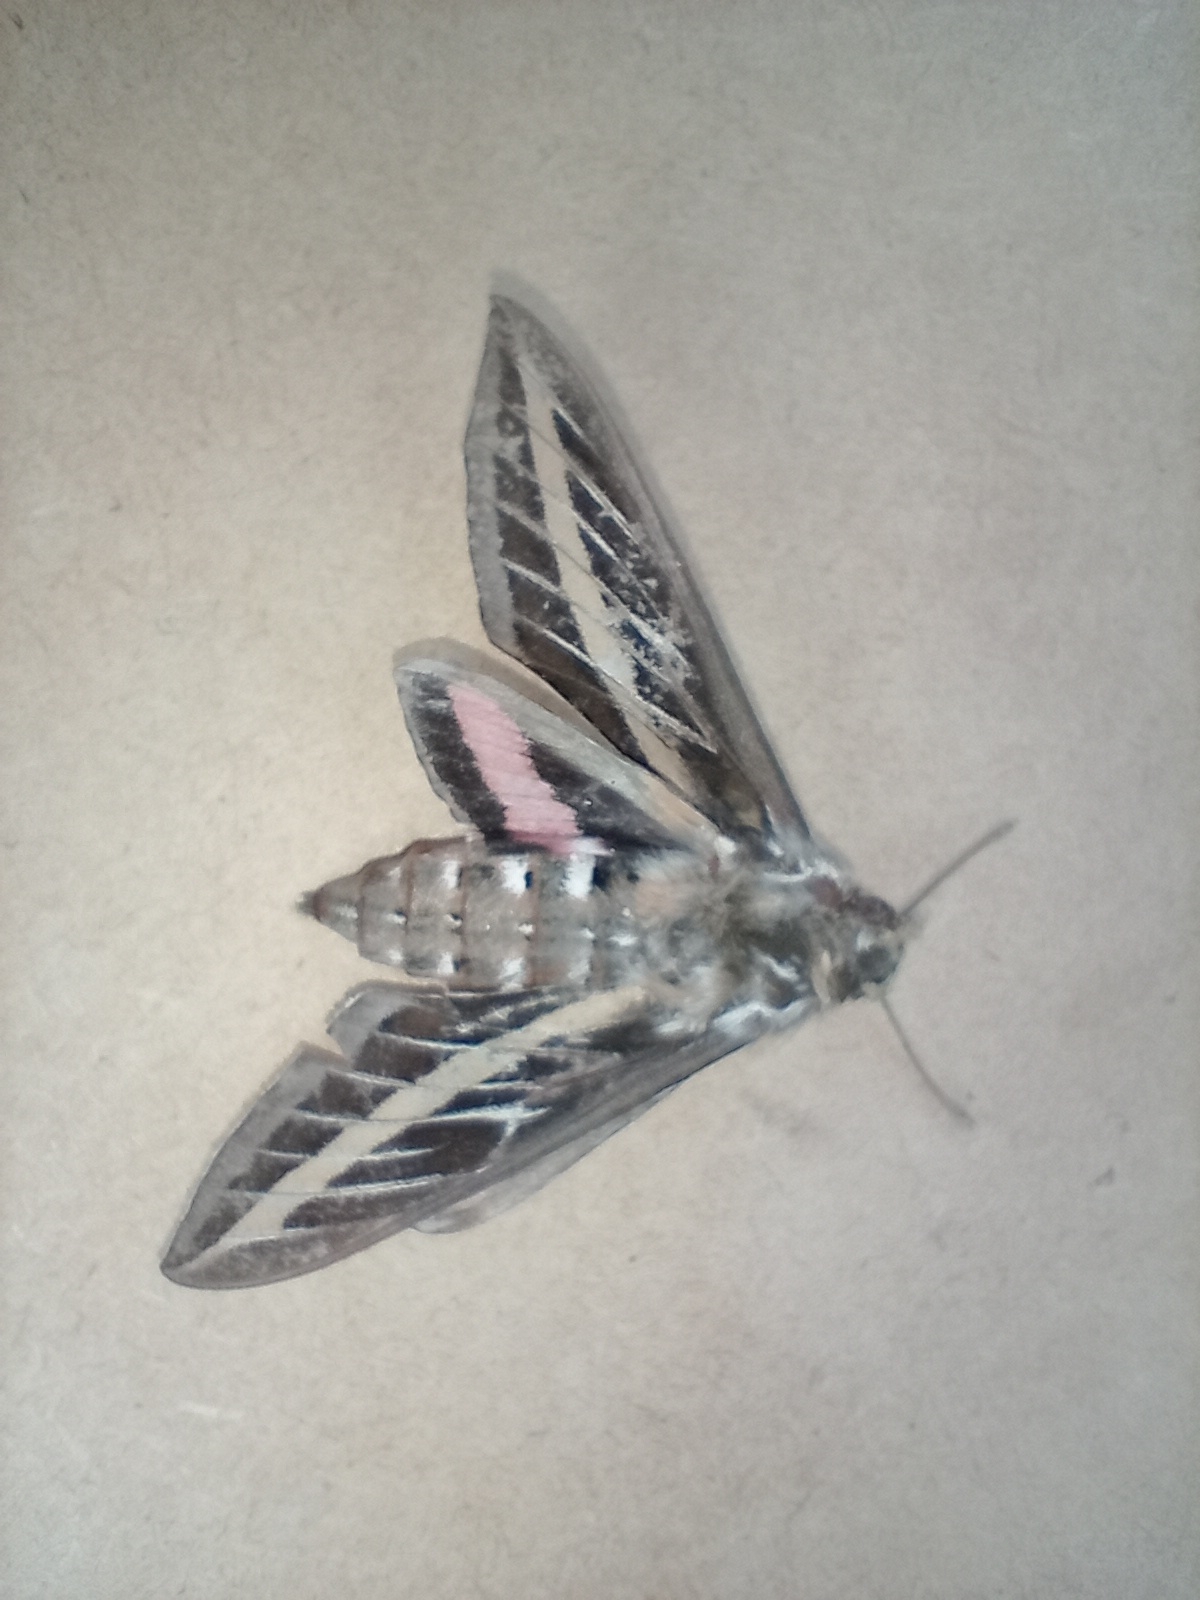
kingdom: Animalia
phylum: Arthropoda
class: Insecta
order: Lepidoptera
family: Sphingidae
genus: Hyles
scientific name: Hyles lineata
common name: White-lined sphinx
